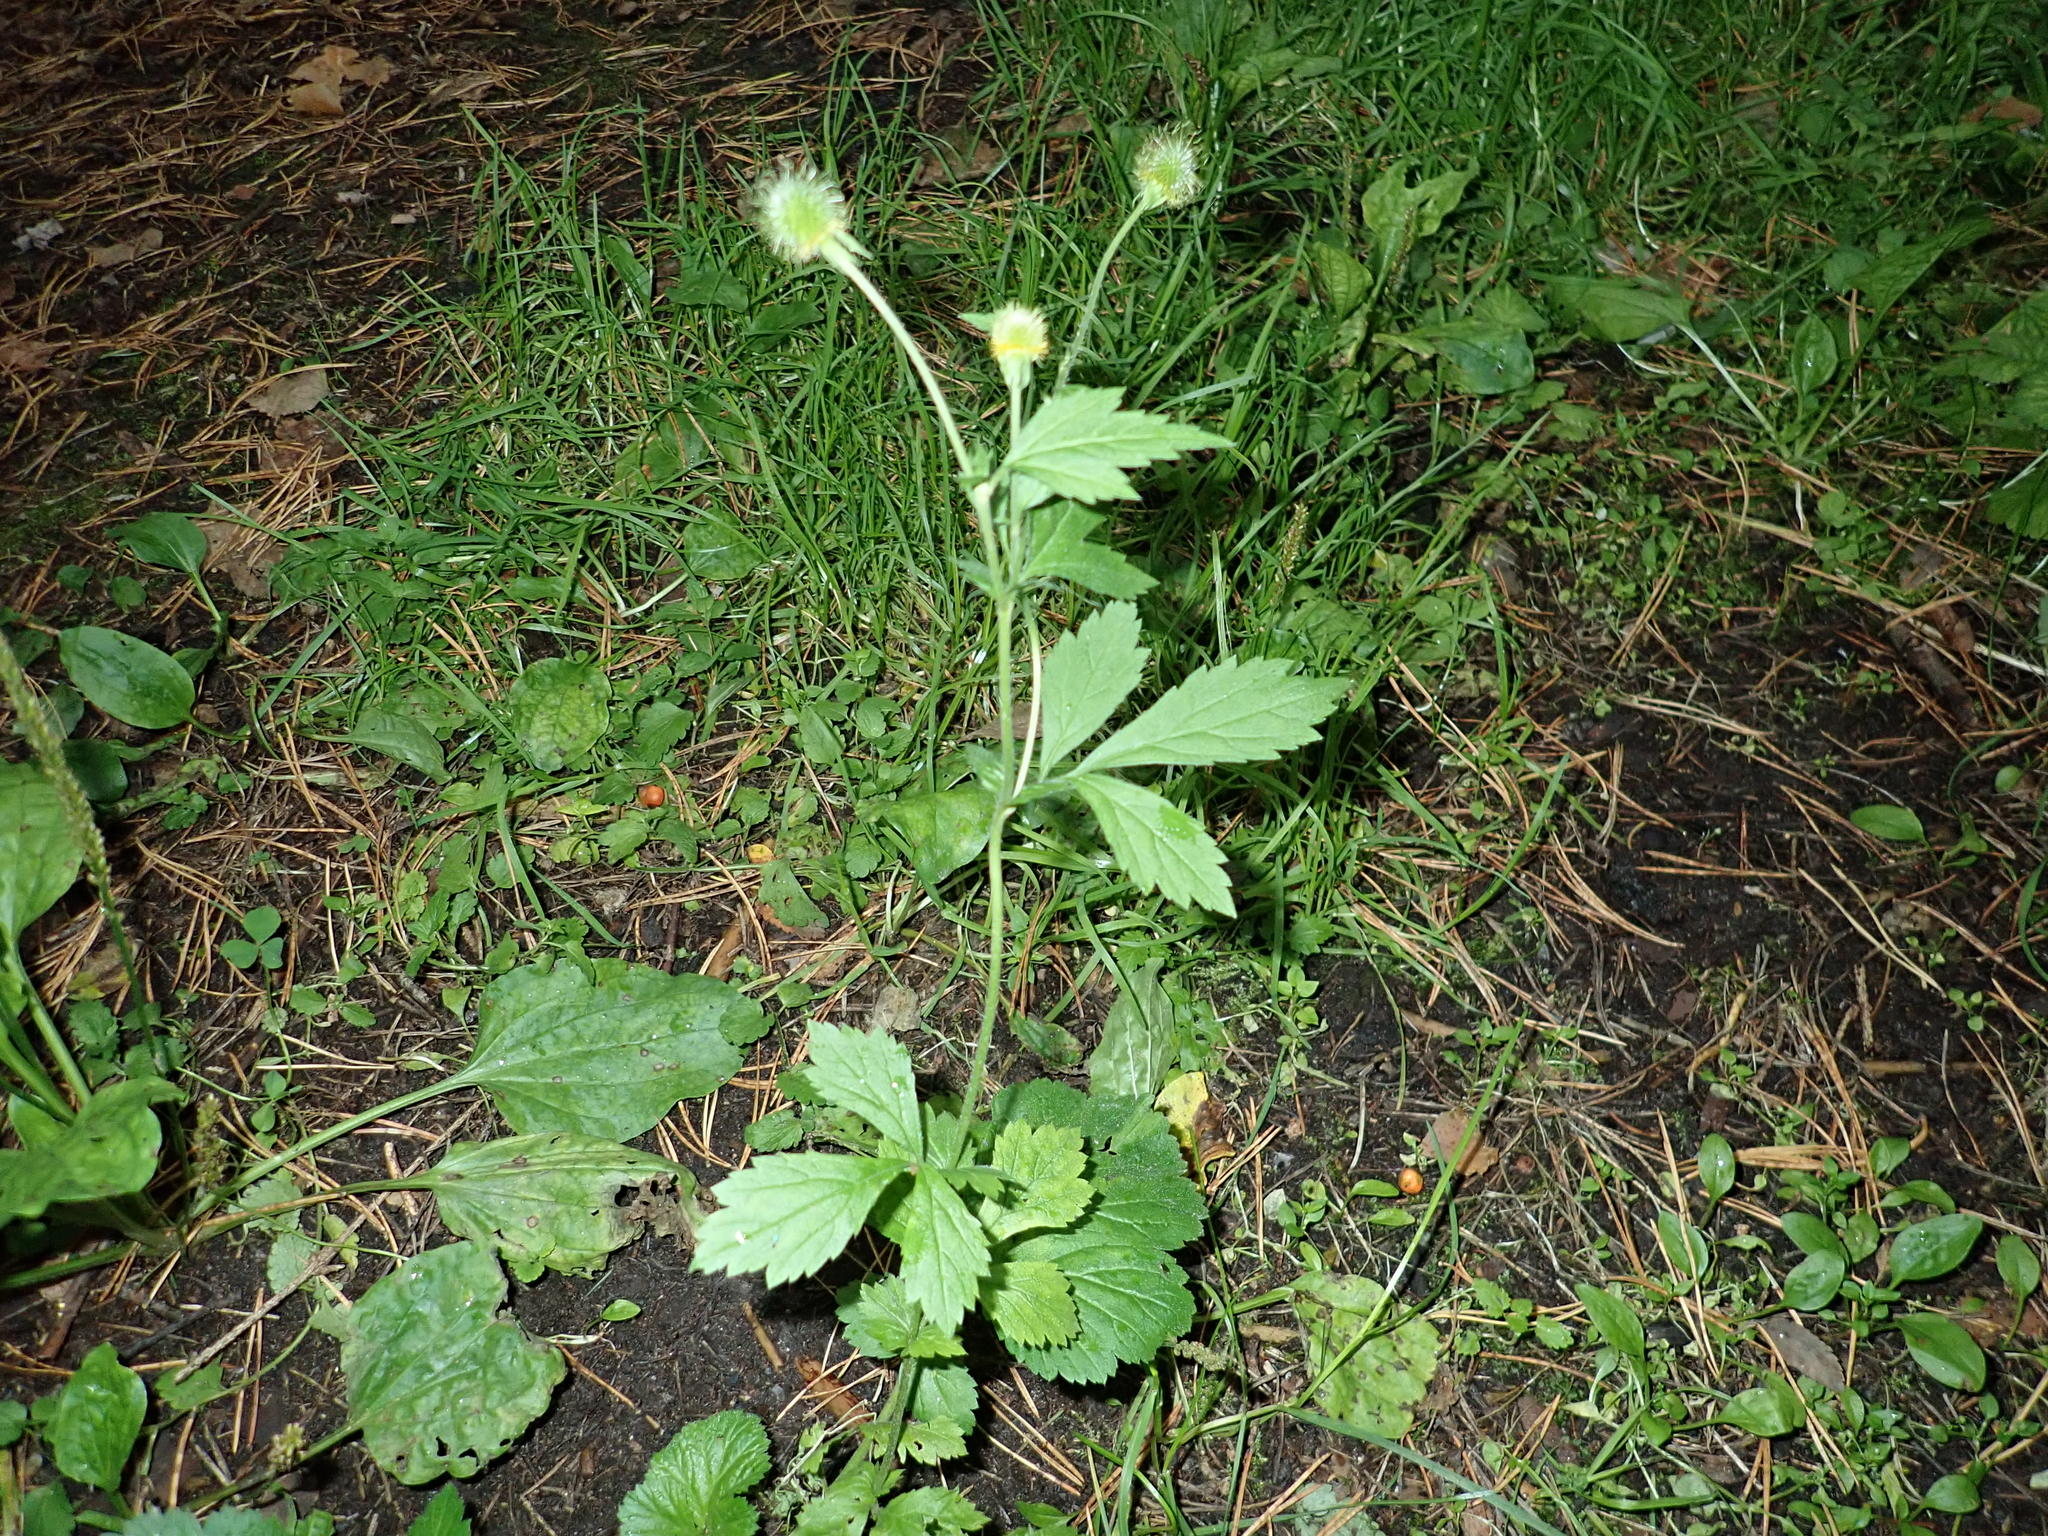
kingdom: Plantae
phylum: Tracheophyta
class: Magnoliopsida
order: Rosales
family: Rosaceae
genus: Geum
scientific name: Geum aleppicum
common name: Yellow avens
